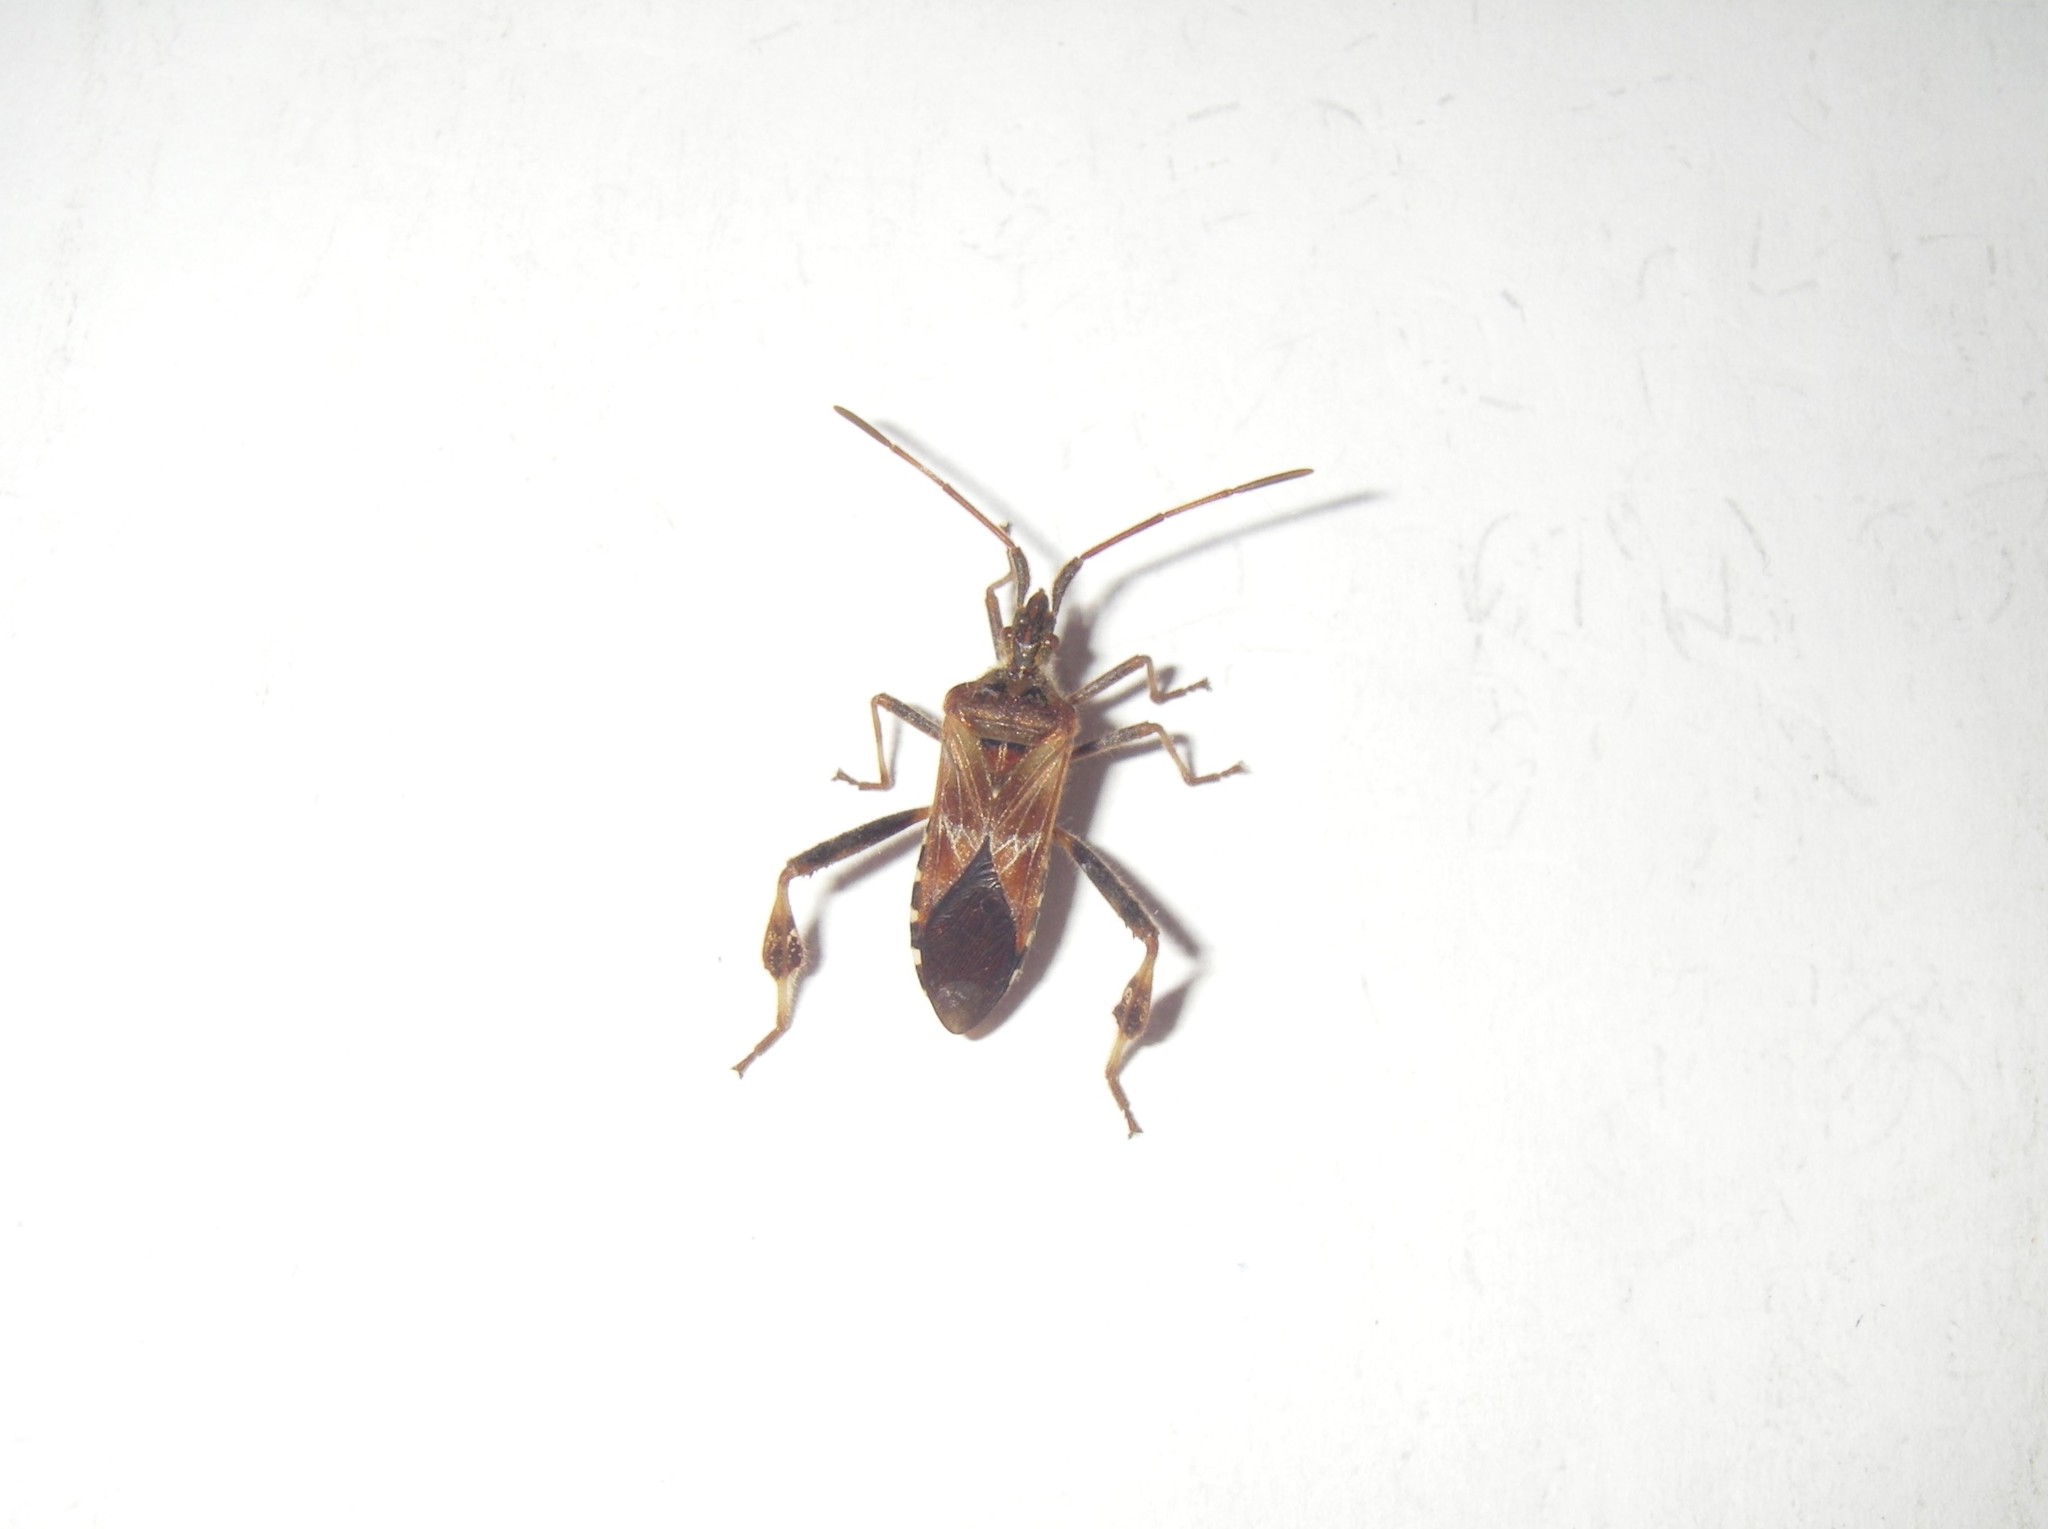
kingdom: Animalia
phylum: Arthropoda
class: Insecta
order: Hemiptera
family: Coreidae
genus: Leptoglossus
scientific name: Leptoglossus occidentalis
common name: Western conifer-seed bug
